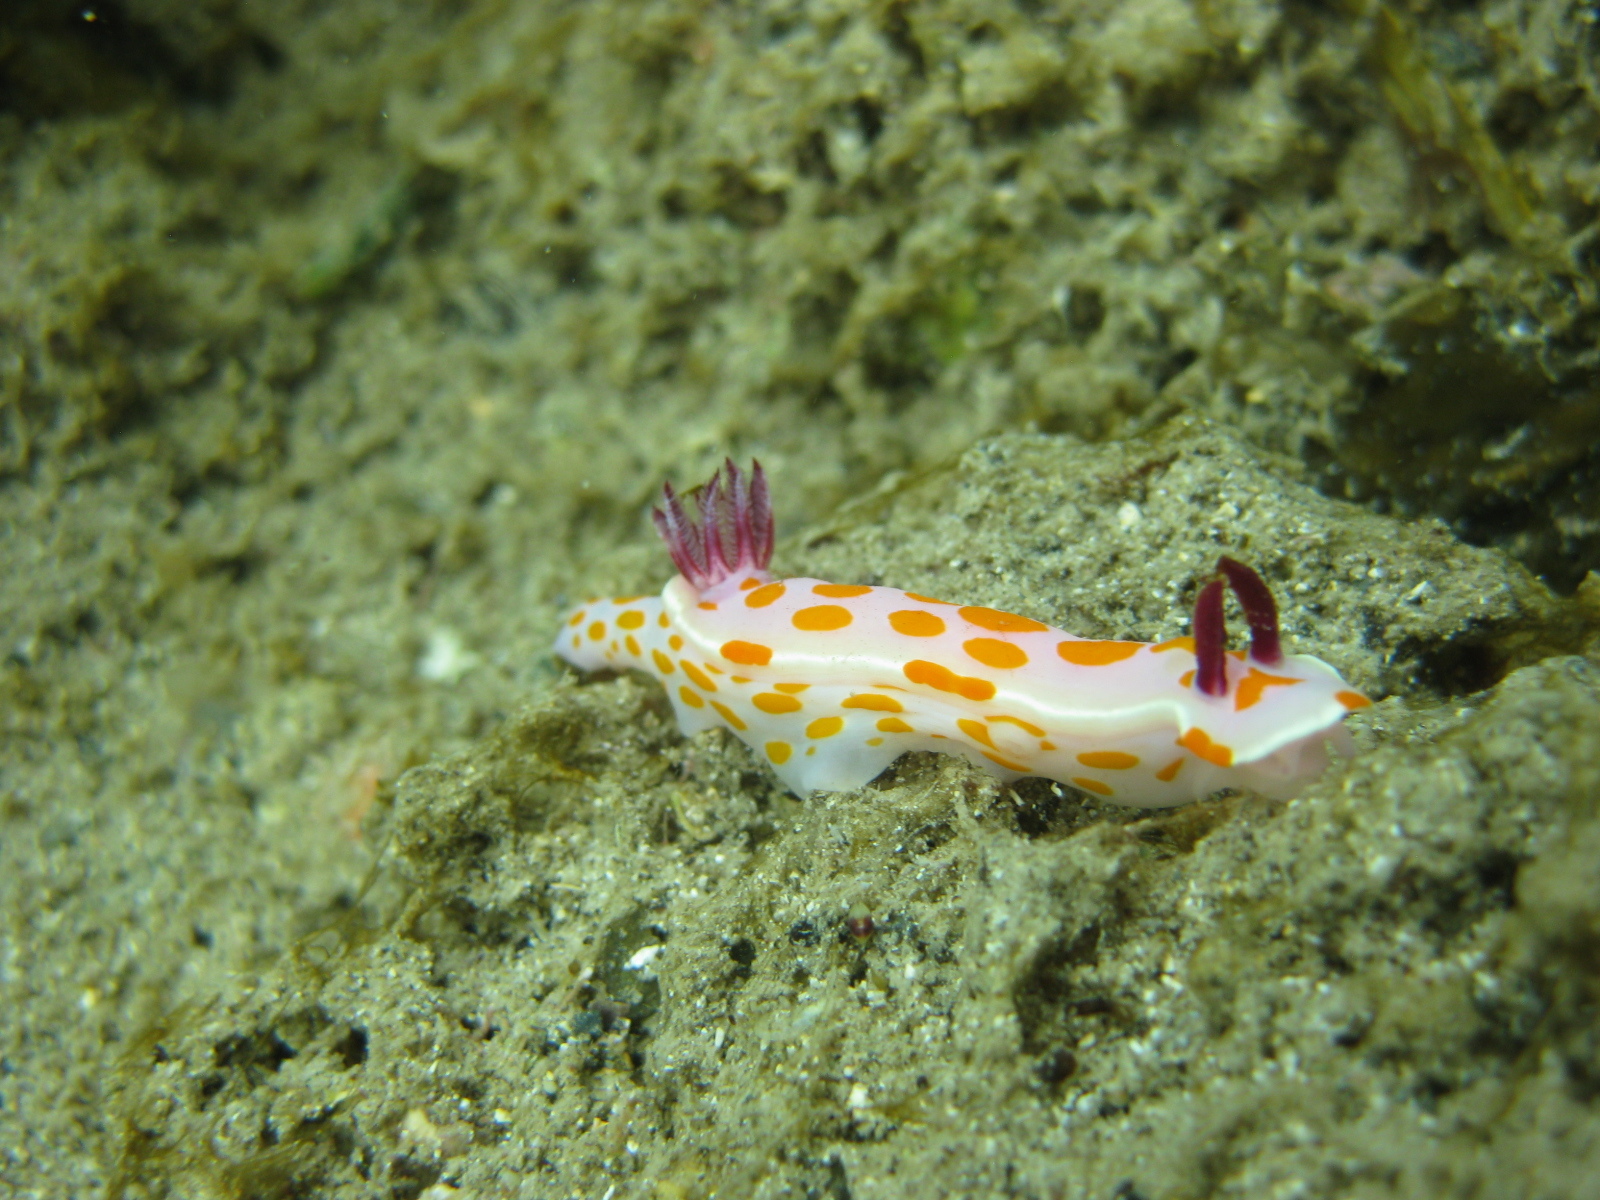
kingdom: Animalia
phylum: Mollusca
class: Gastropoda
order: Nudibranchia
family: Chromodorididae
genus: Ceratosoma
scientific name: Ceratosoma amoenum
